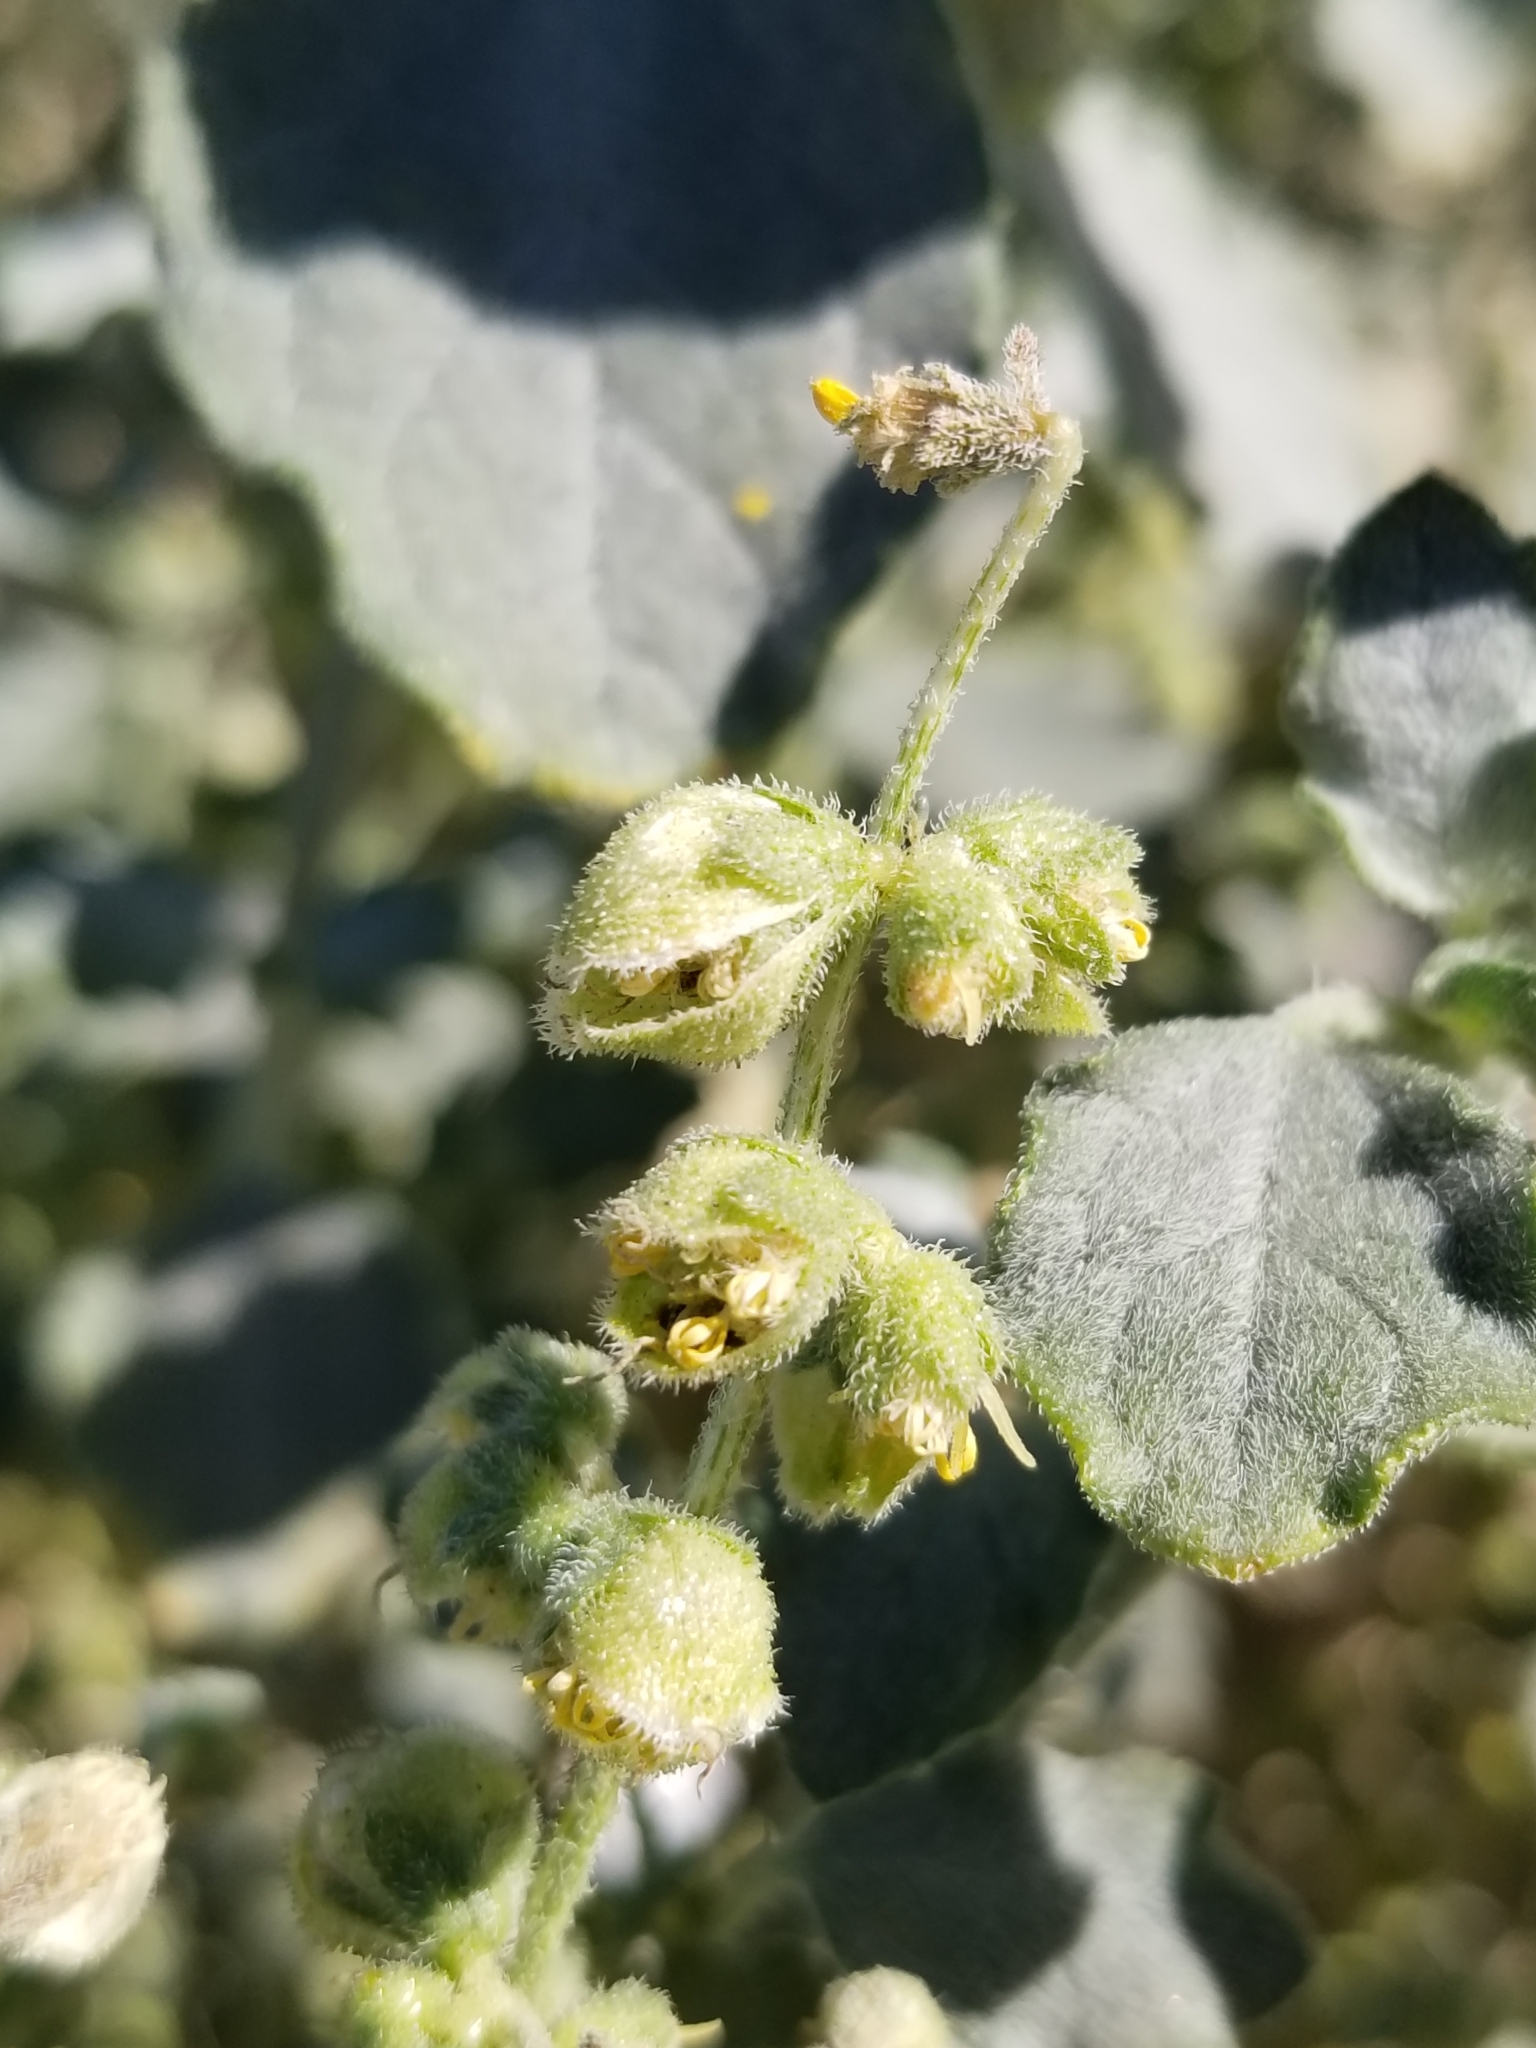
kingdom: Plantae
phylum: Tracheophyta
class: Magnoliopsida
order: Asterales
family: Asteraceae
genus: Dicoria
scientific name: Dicoria canescens
